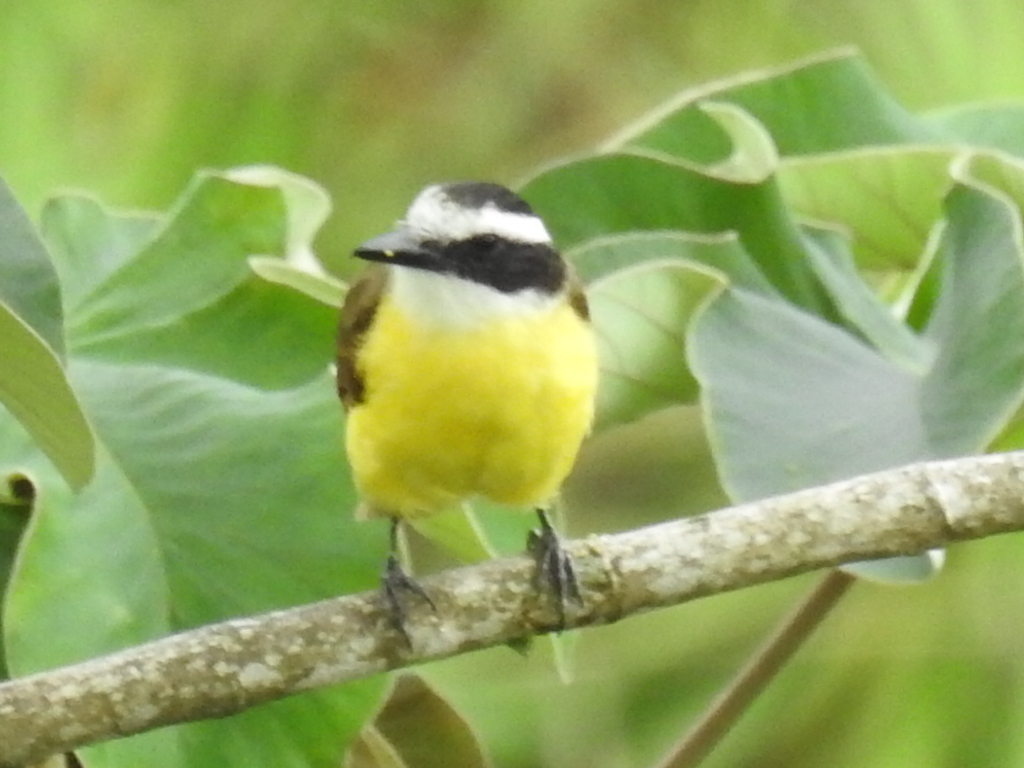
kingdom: Animalia
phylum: Chordata
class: Aves
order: Passeriformes
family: Tyrannidae
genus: Pitangus
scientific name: Pitangus sulphuratus
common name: Great kiskadee
